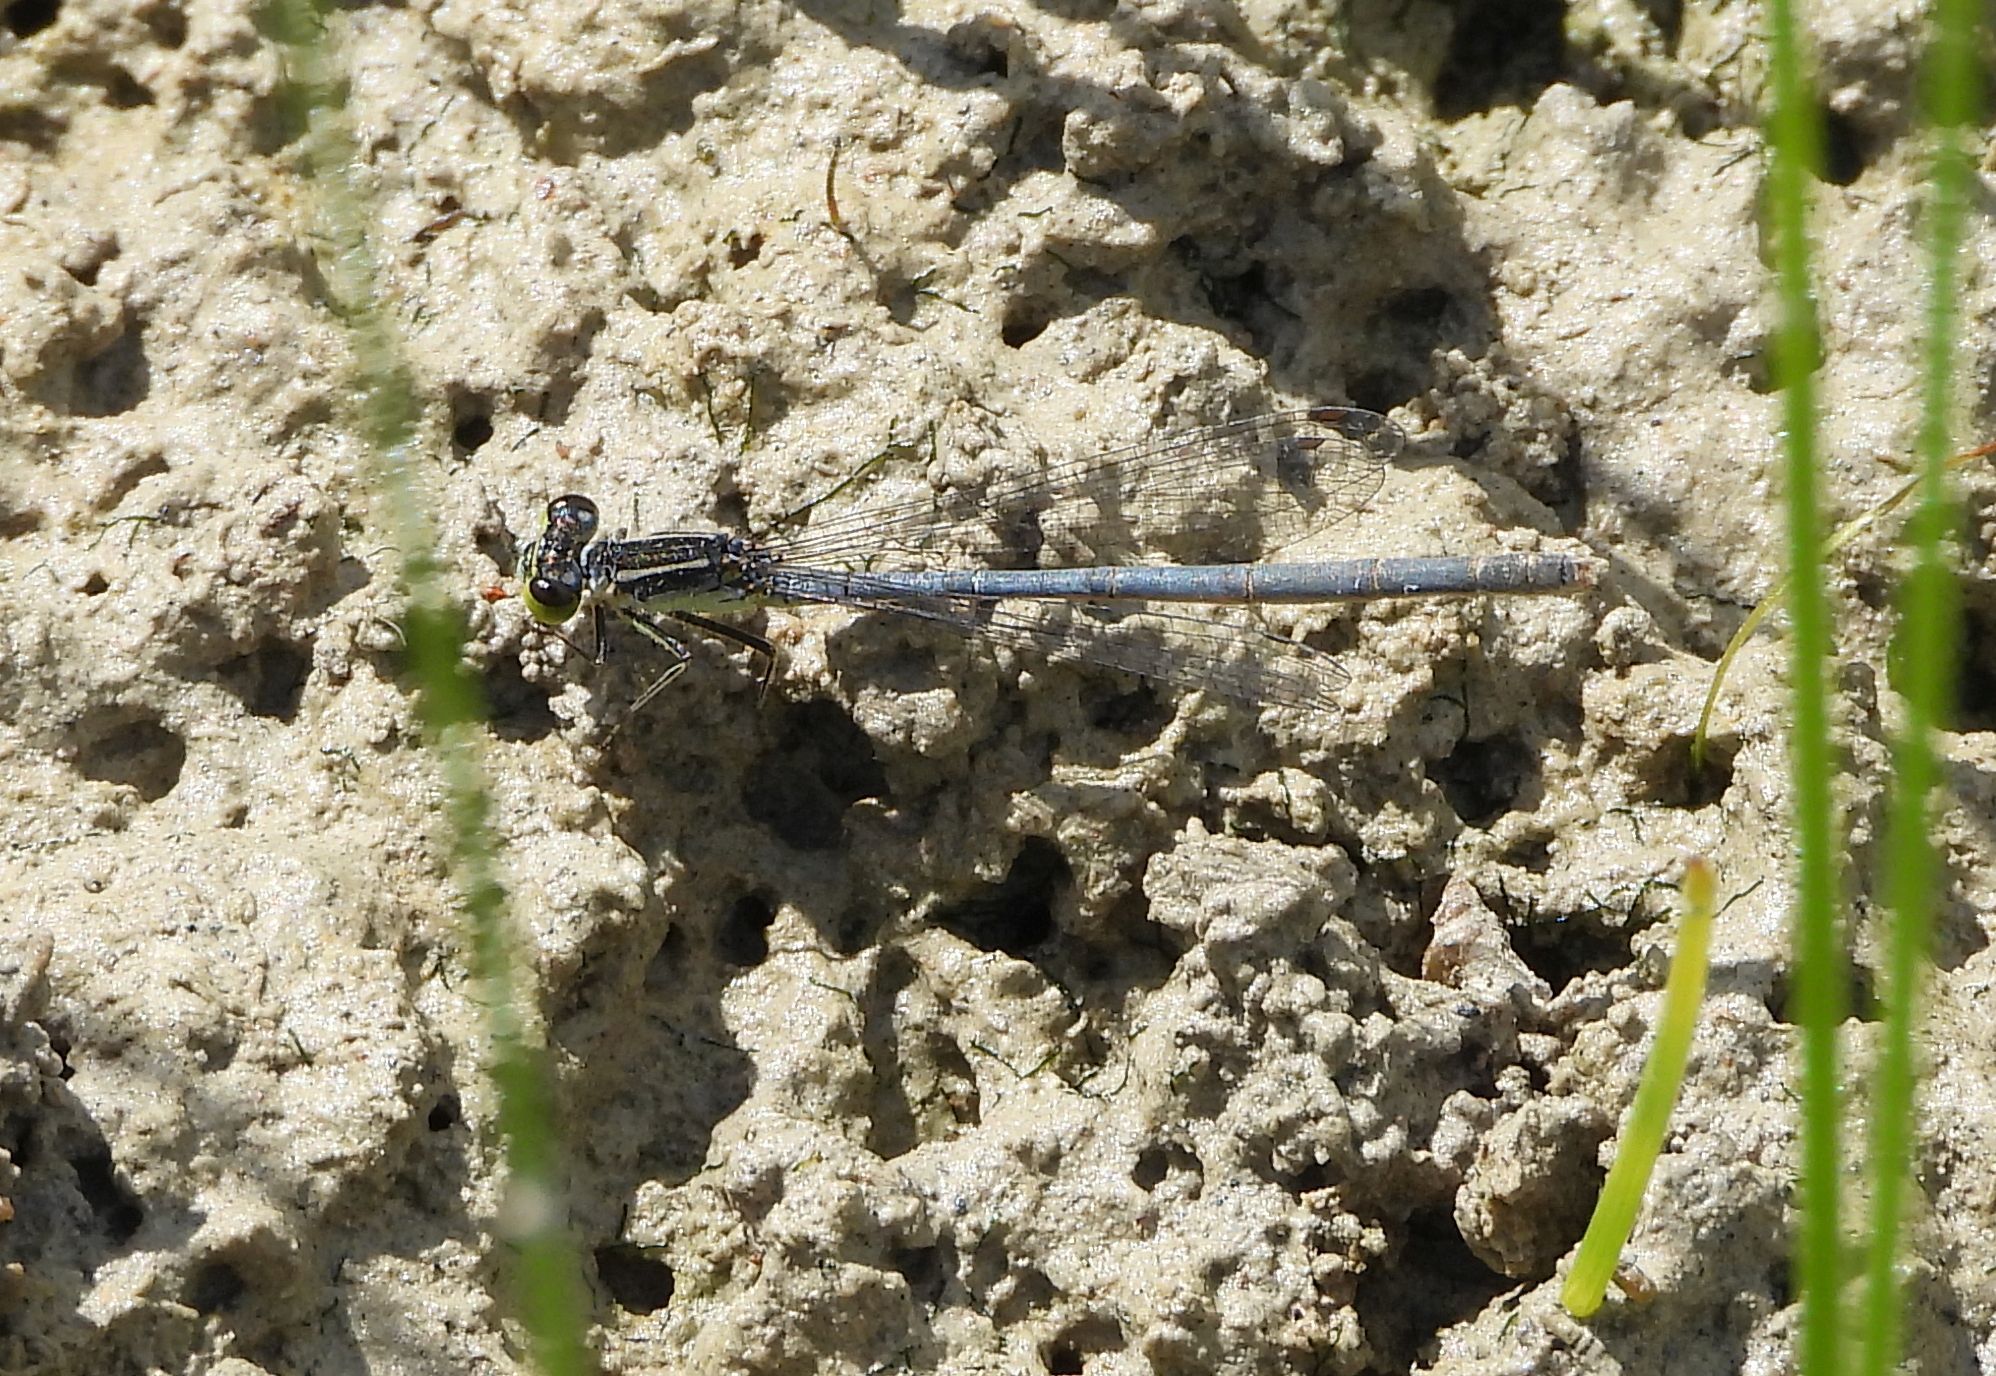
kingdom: Animalia
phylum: Arthropoda
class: Insecta
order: Odonata
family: Coenagrionidae
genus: Ischnura
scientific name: Ischnura verticalis
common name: Eastern forktail
